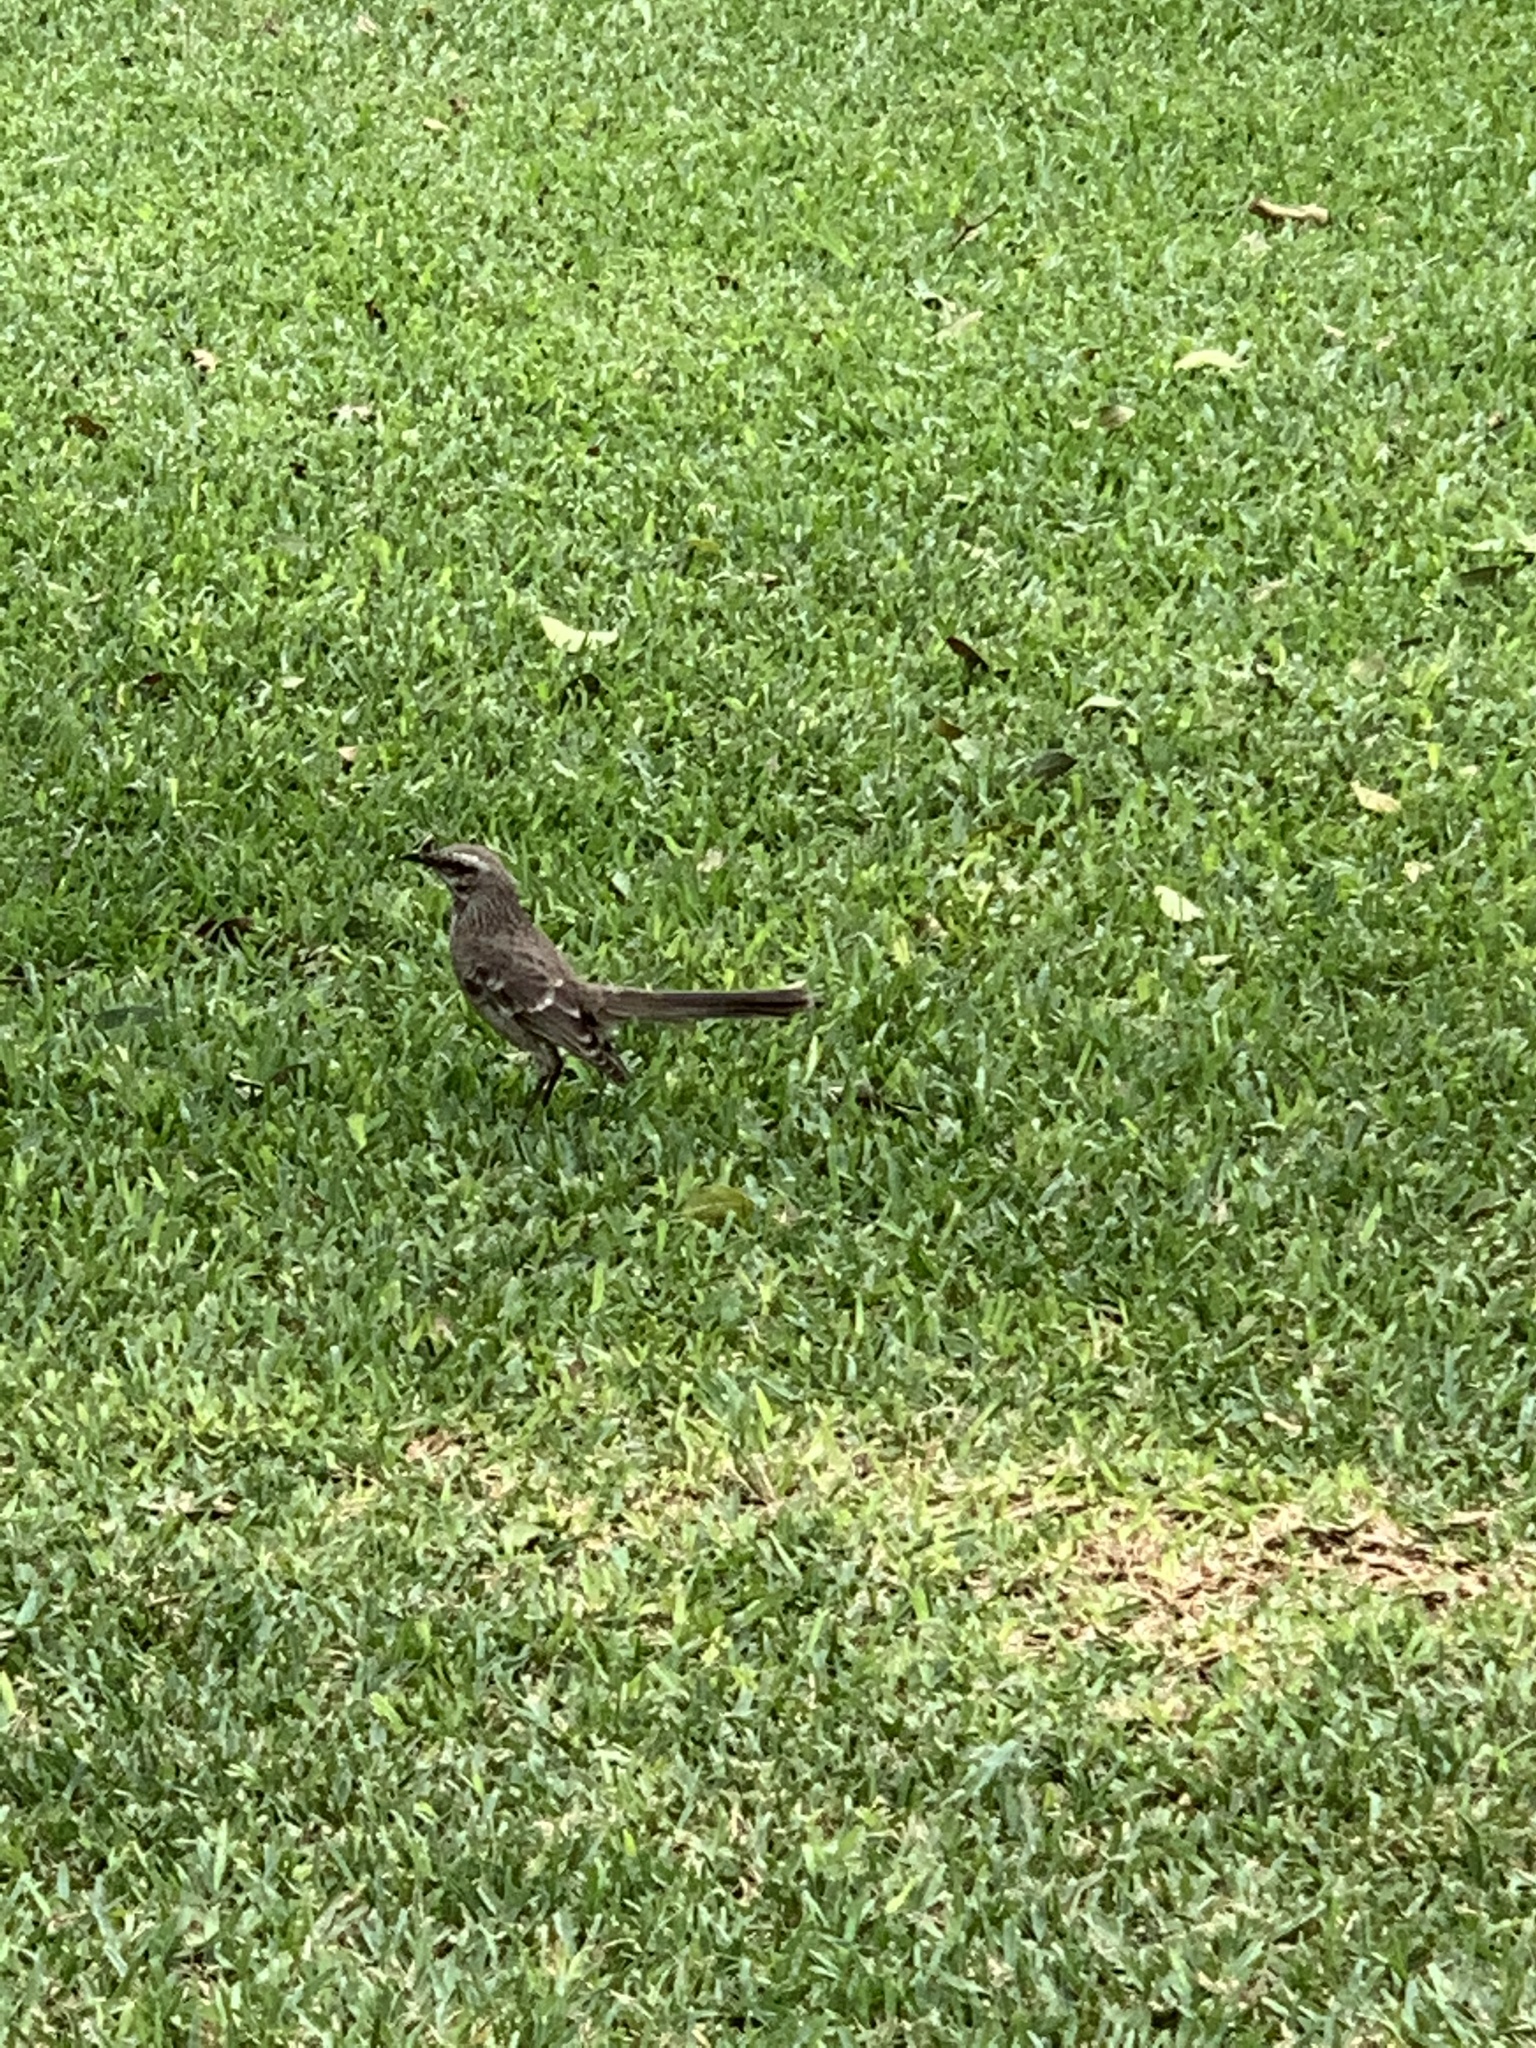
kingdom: Animalia
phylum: Chordata
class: Aves
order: Passeriformes
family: Mimidae
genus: Mimus
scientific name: Mimus longicaudatus
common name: Long-tailed mockingbird
